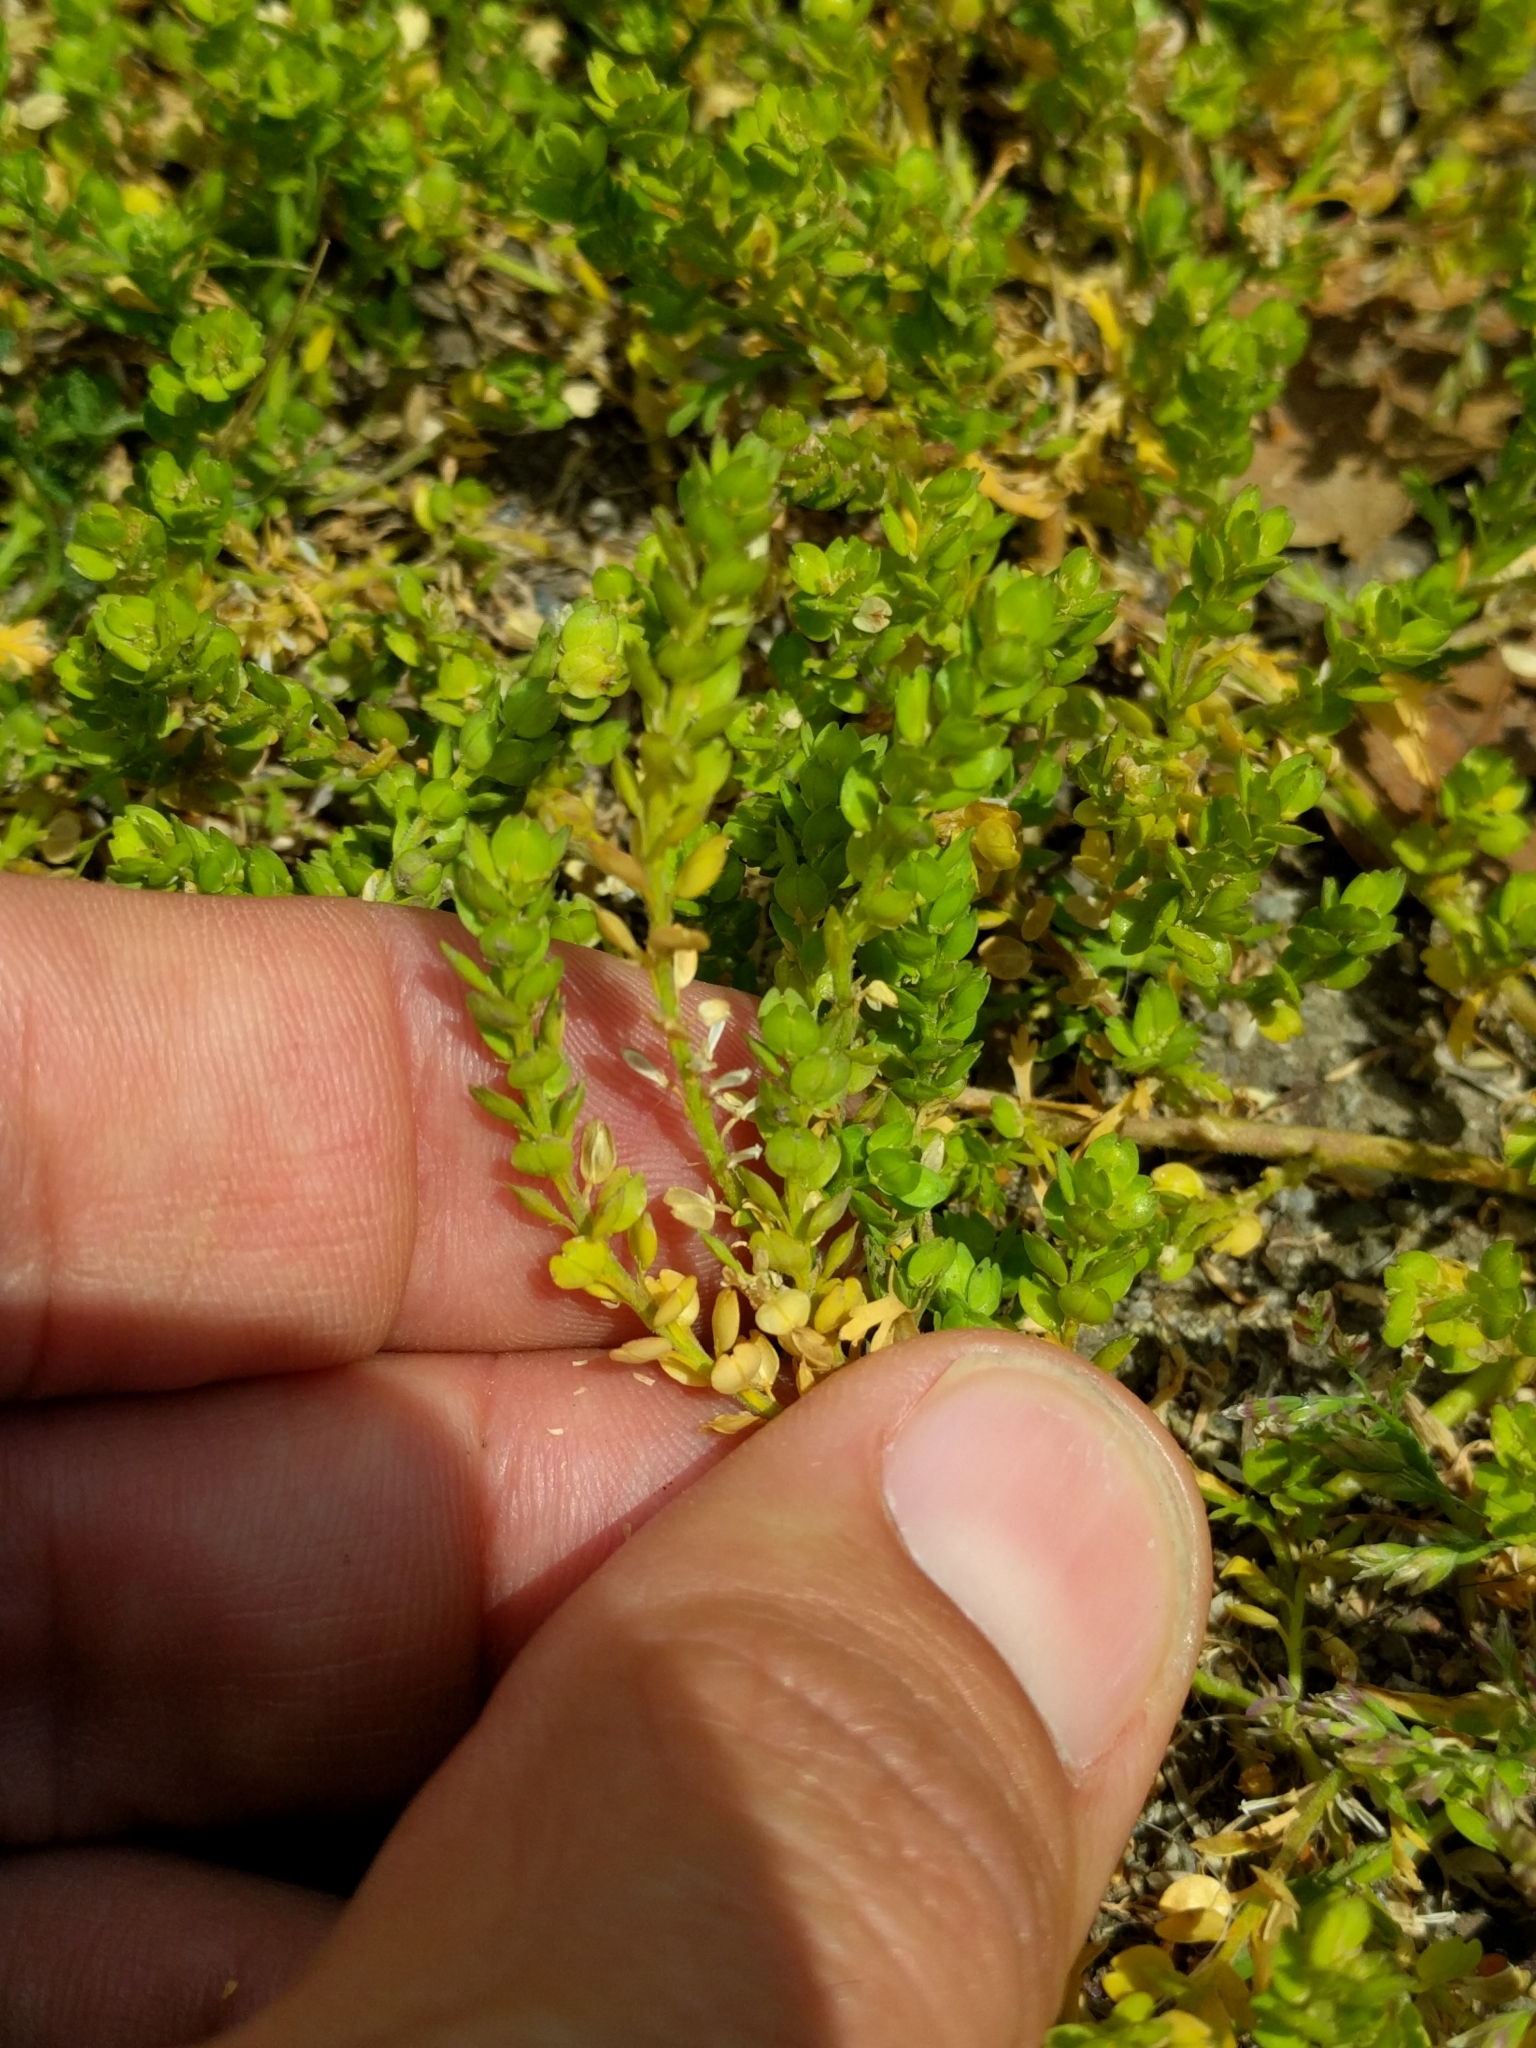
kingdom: Plantae
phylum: Tracheophyta
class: Magnoliopsida
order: Brassicales
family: Brassicaceae
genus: Lepidium
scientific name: Lepidium strictum
